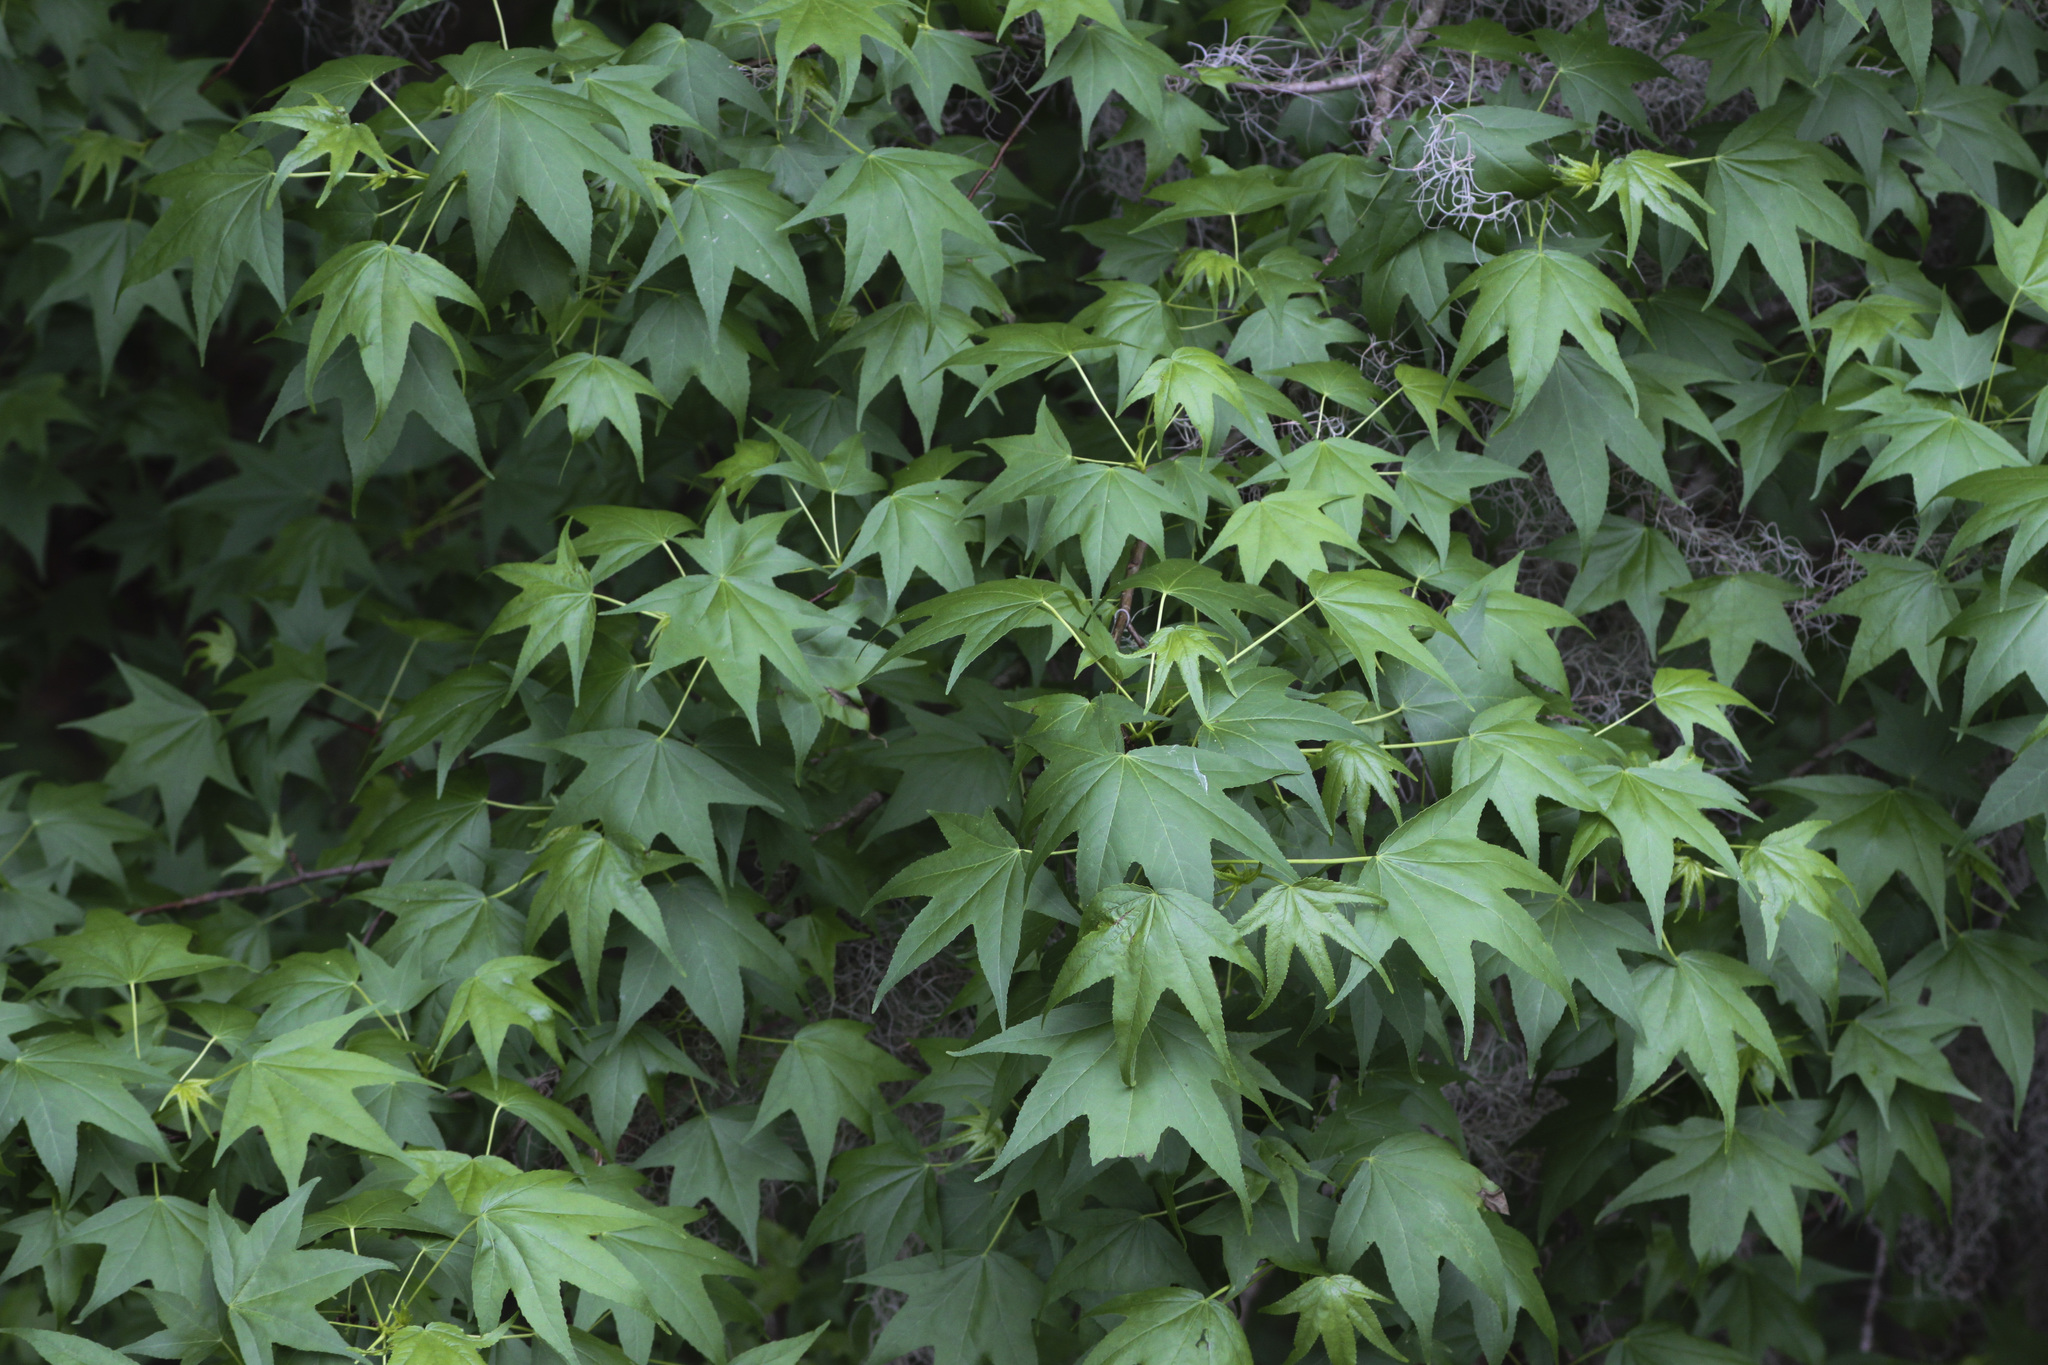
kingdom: Plantae
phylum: Tracheophyta
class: Magnoliopsida
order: Saxifragales
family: Altingiaceae
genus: Liquidambar
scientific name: Liquidambar styraciflua
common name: Sweet gum
